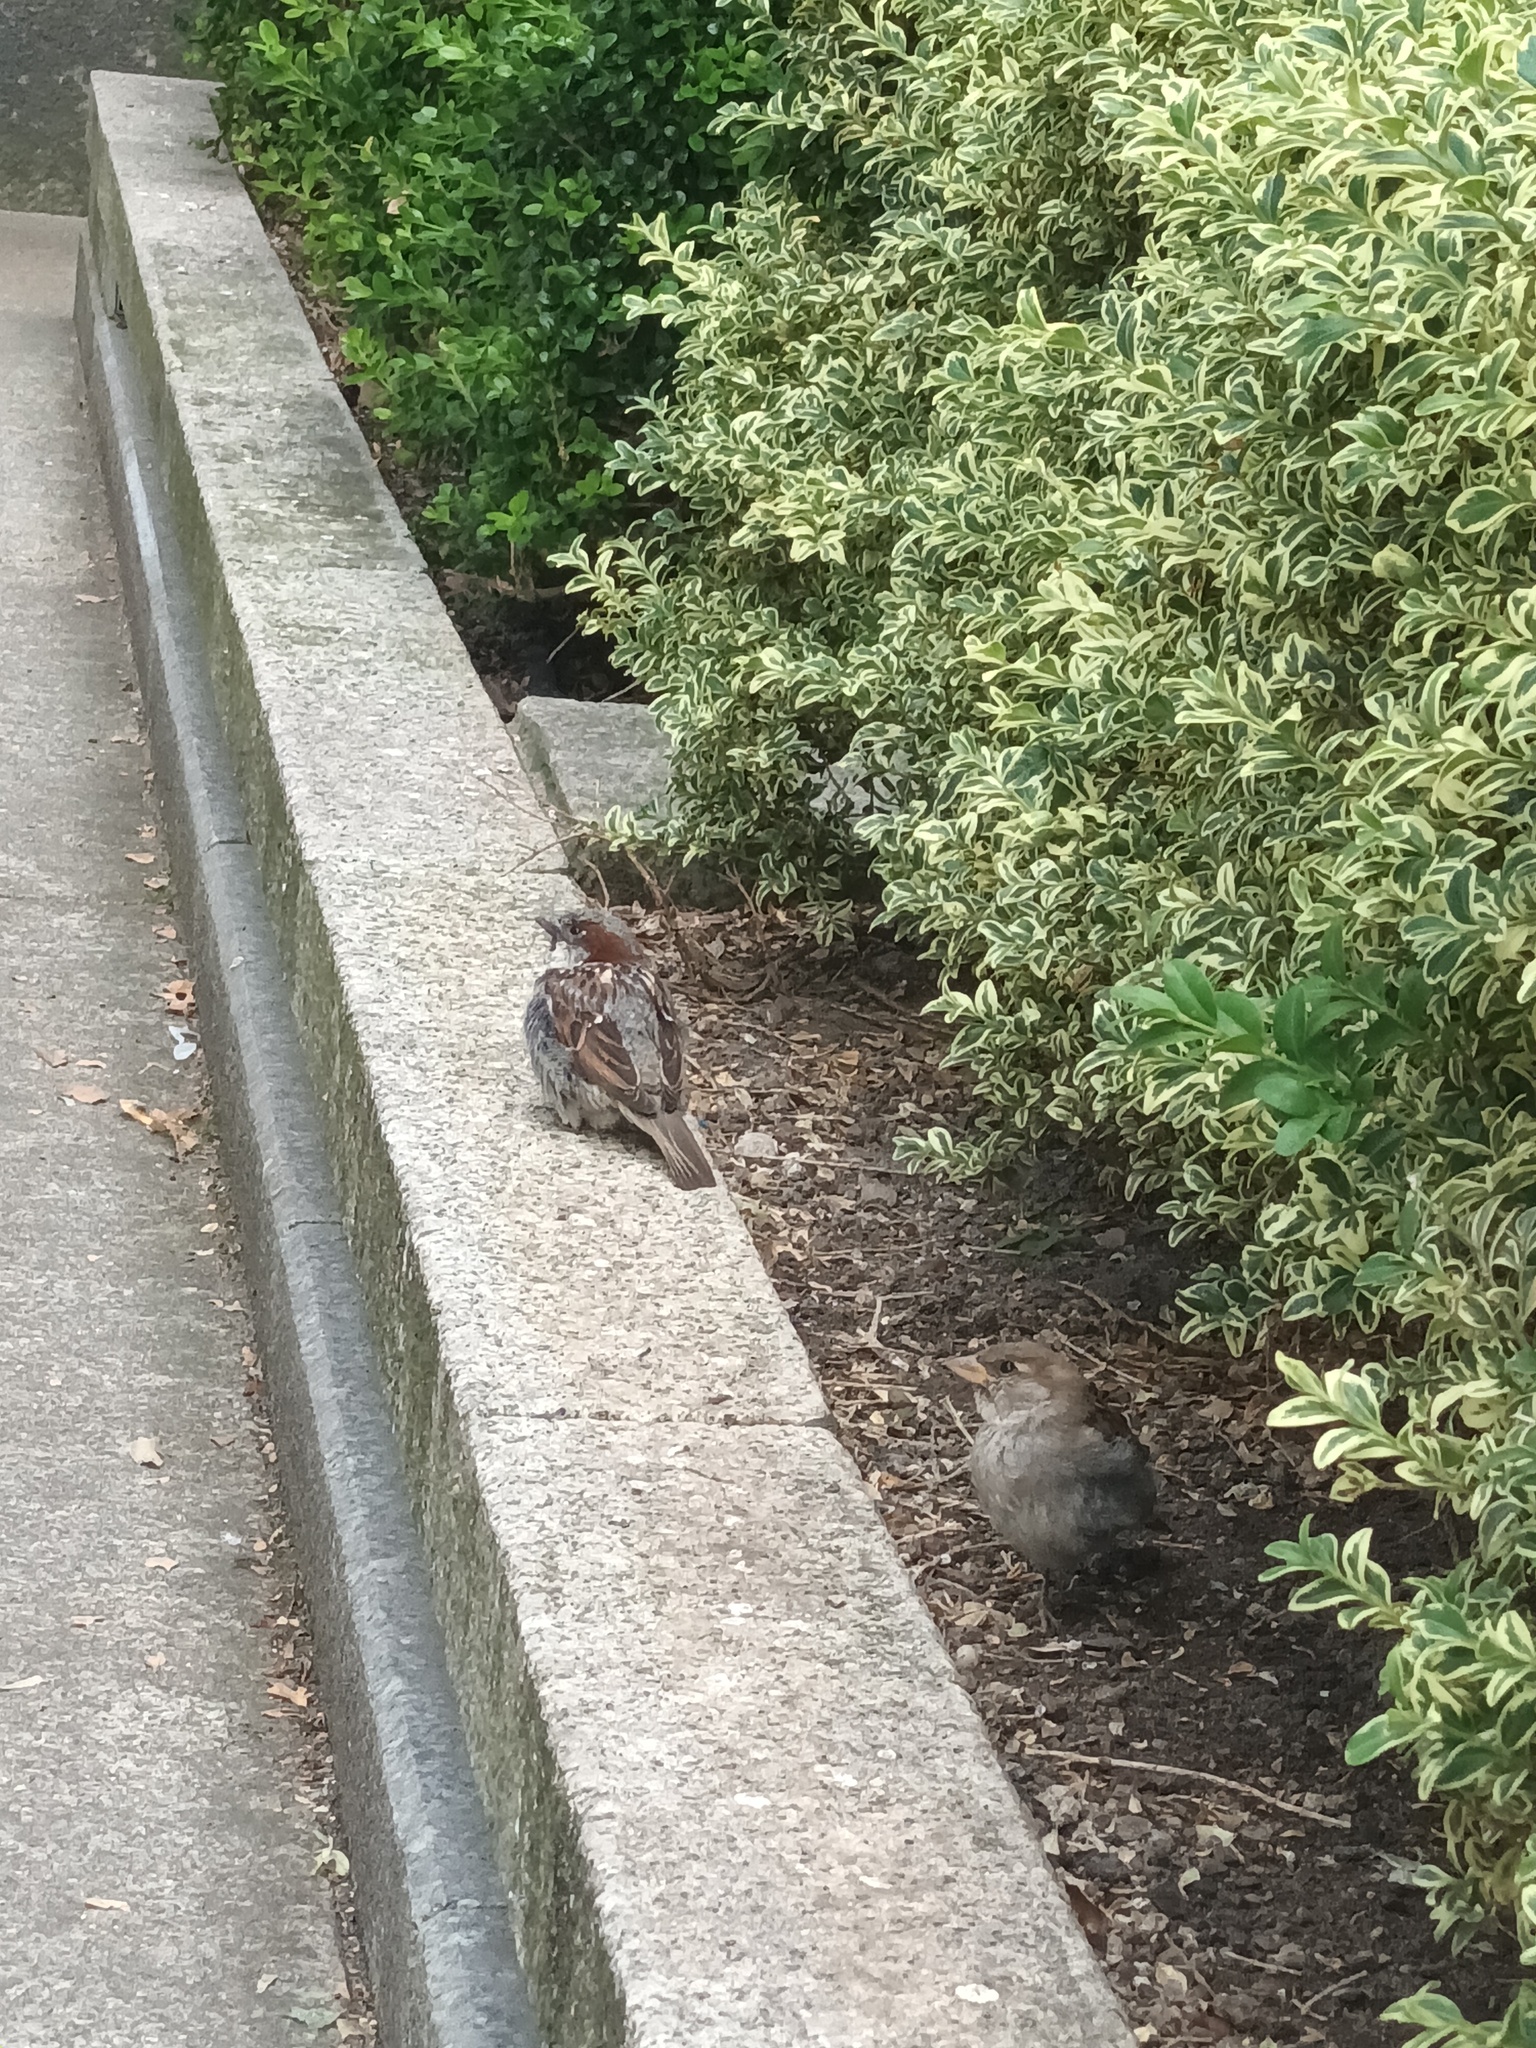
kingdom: Animalia
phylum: Chordata
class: Aves
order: Passeriformes
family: Passeridae
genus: Passer
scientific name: Passer domesticus
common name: House sparrow
